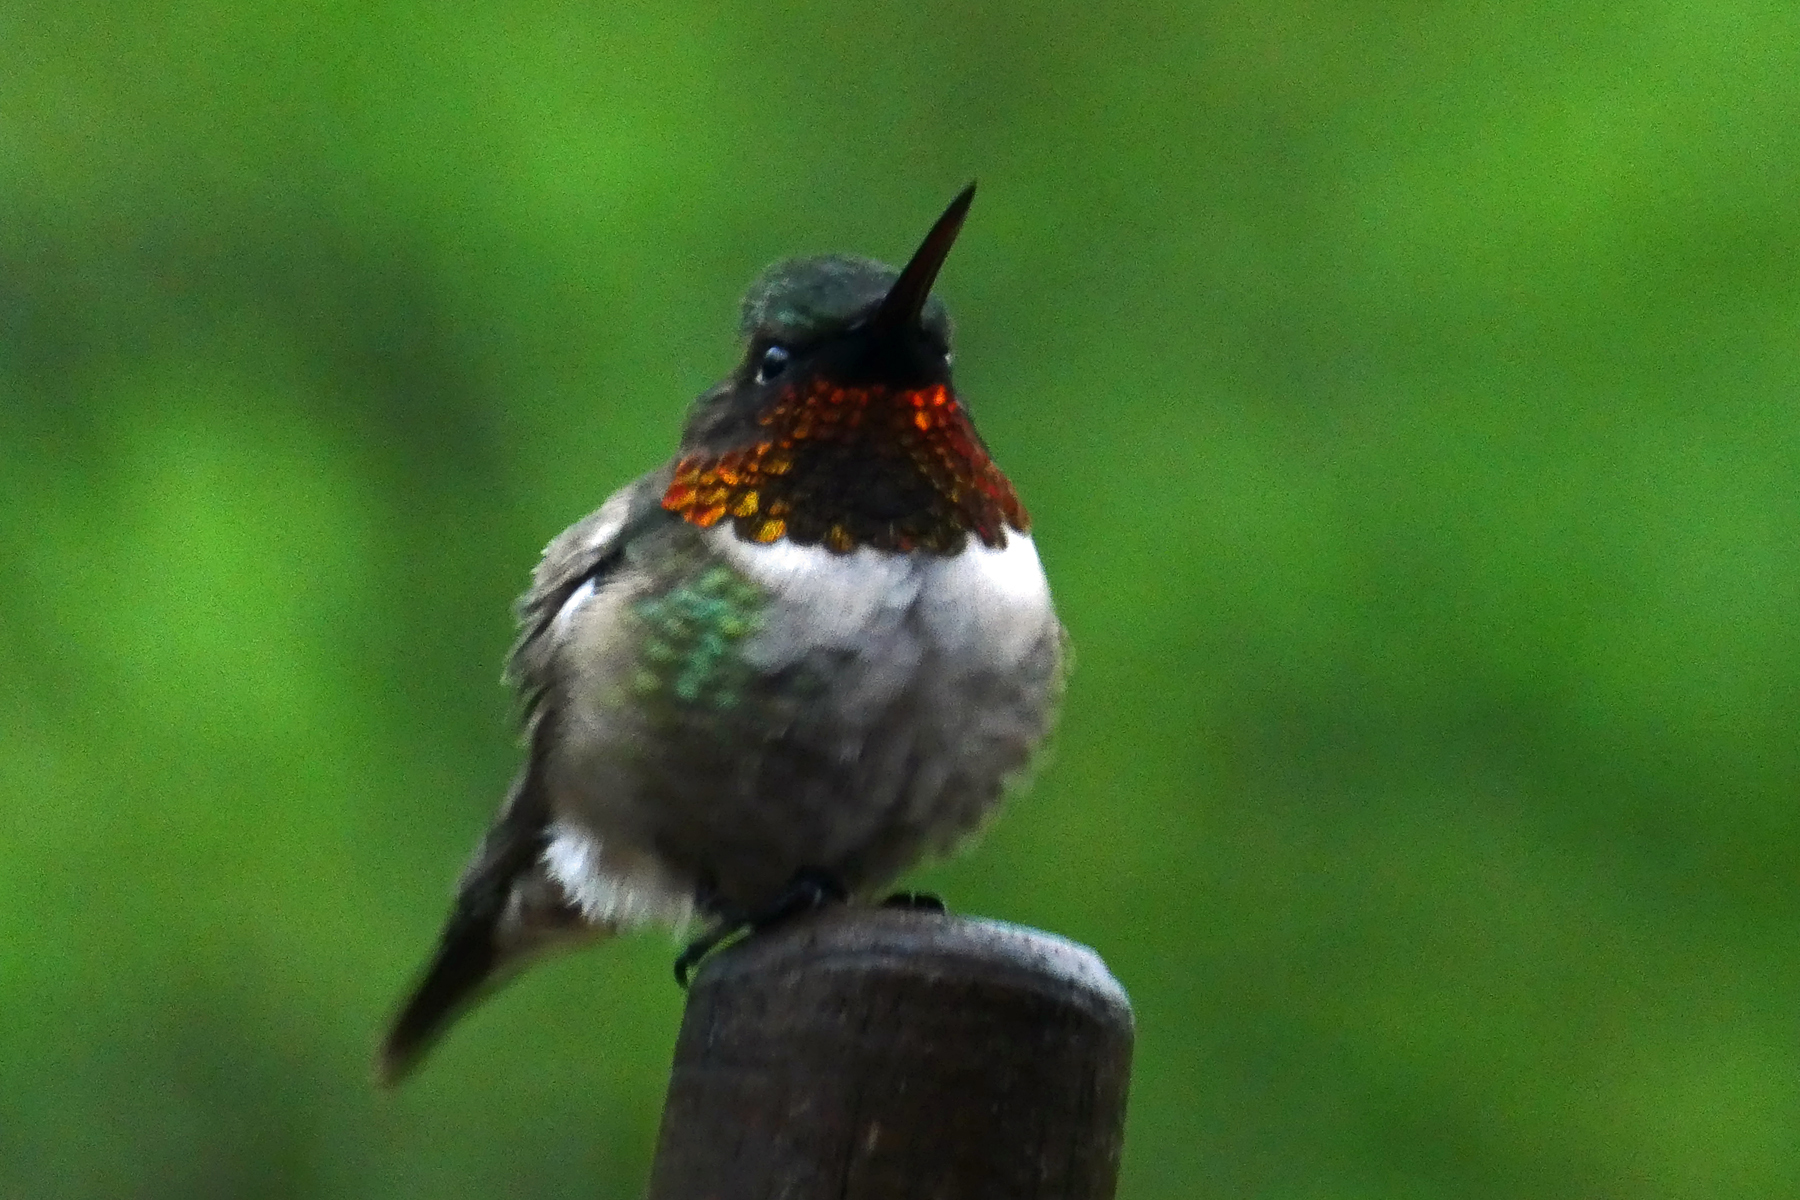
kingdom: Animalia
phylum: Chordata
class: Aves
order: Apodiformes
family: Trochilidae
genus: Archilochus
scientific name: Archilochus colubris
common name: Ruby-throated hummingbird
